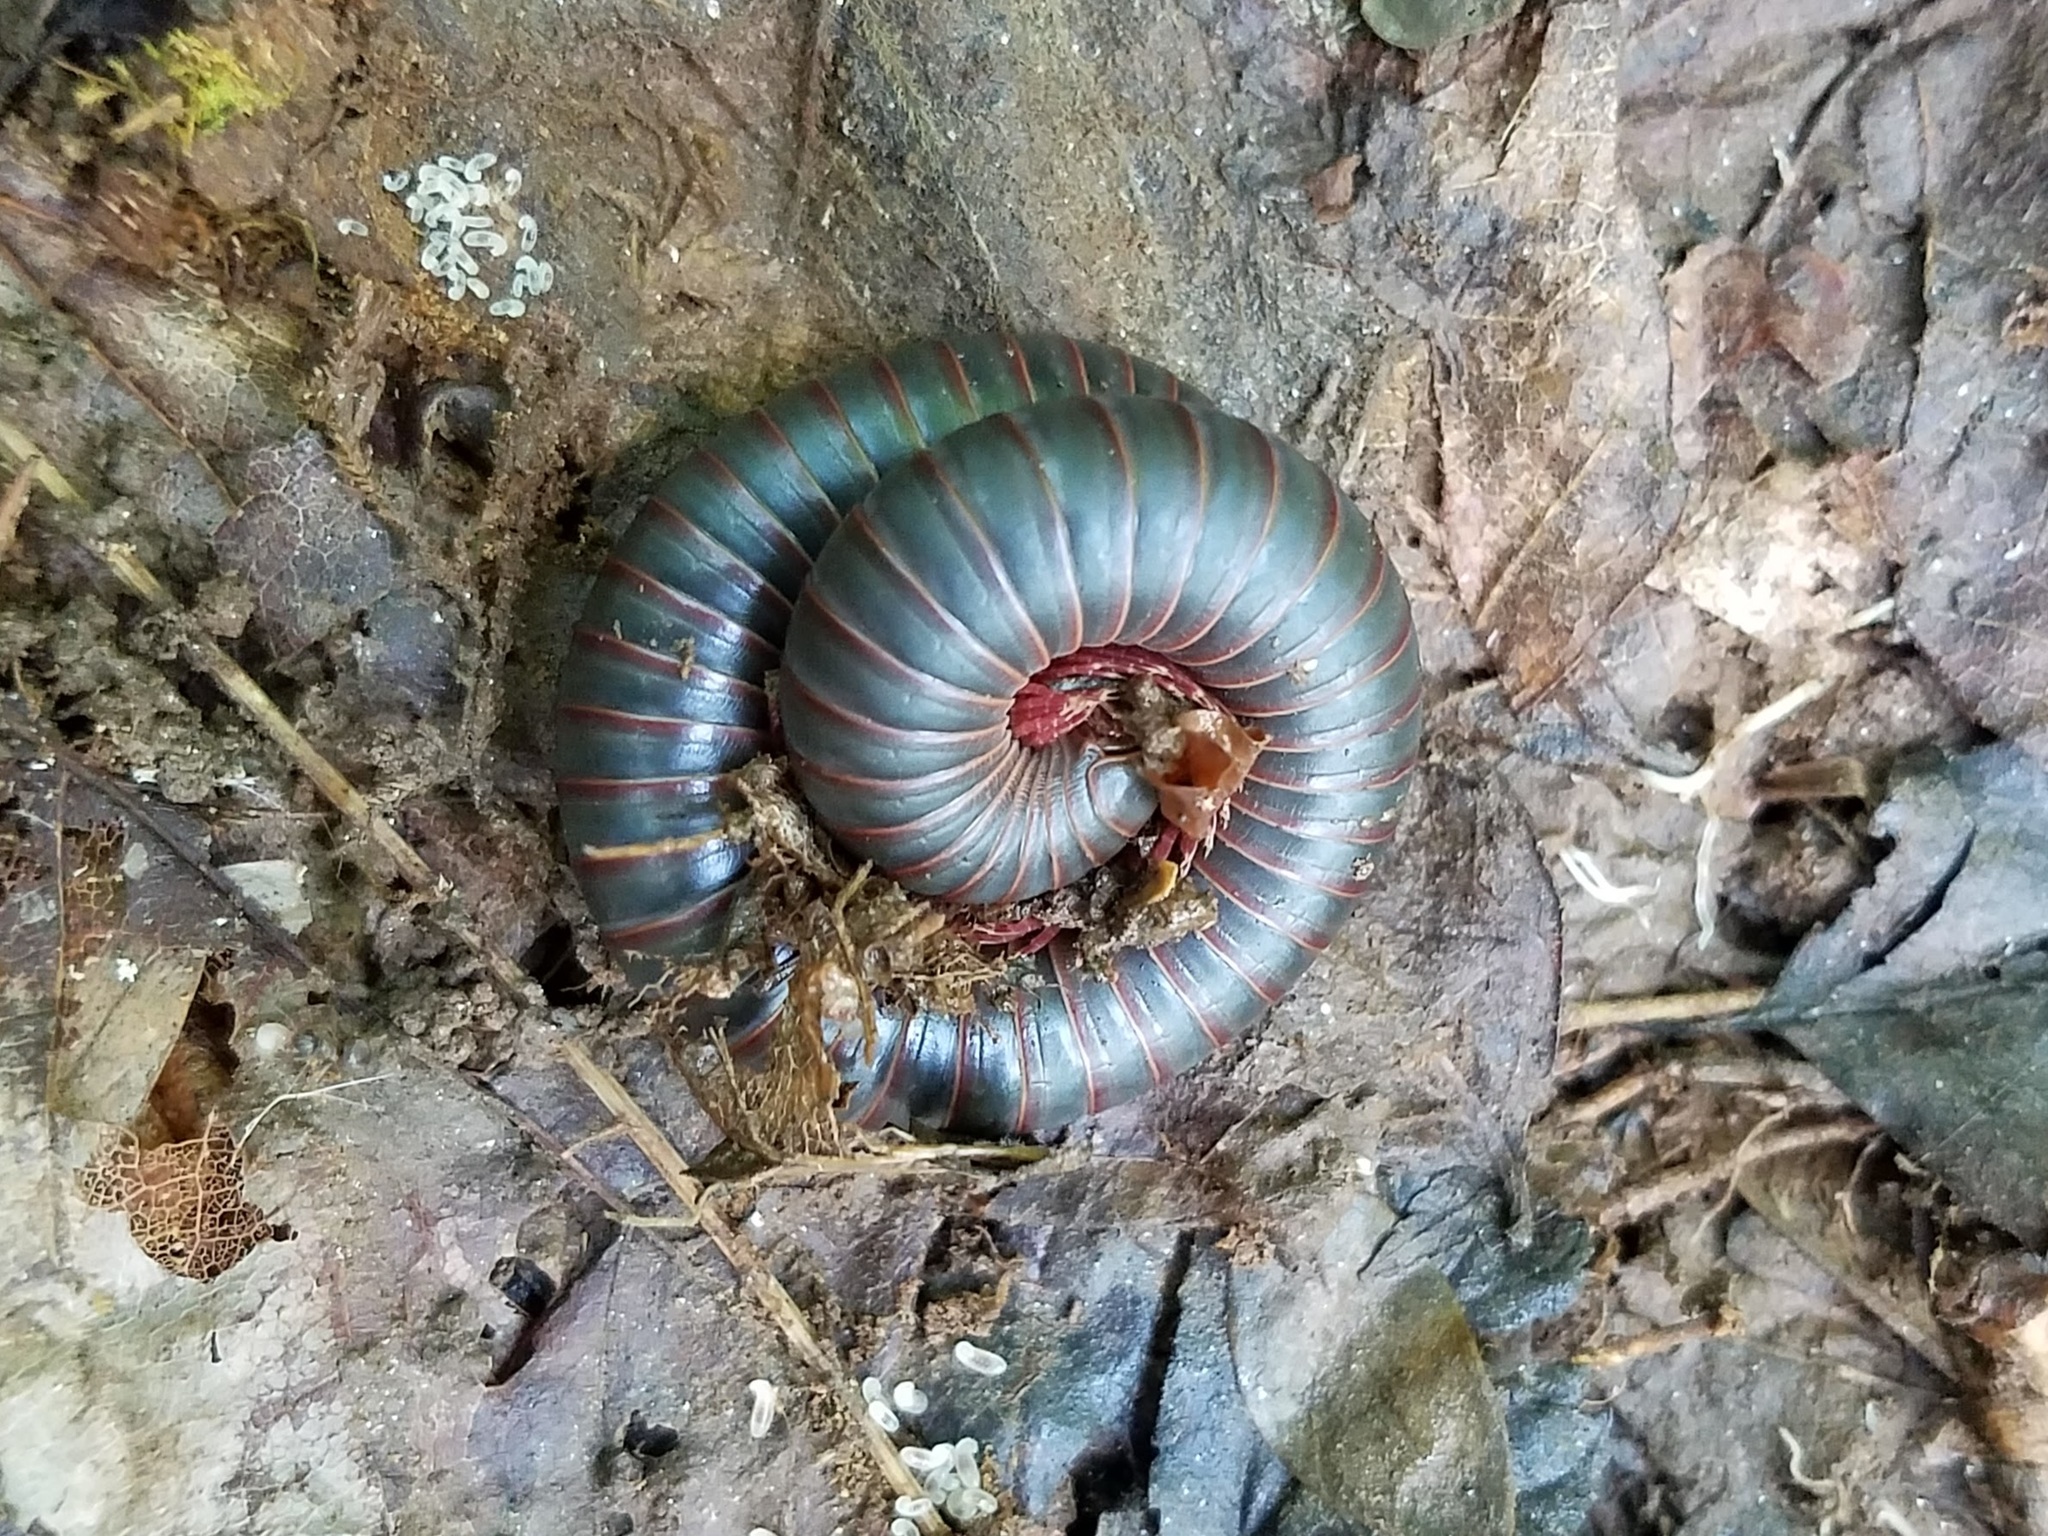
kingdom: Animalia
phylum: Arthropoda
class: Diplopoda
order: Spirobolida
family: Spirobolidae
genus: Narceus
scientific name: Narceus
